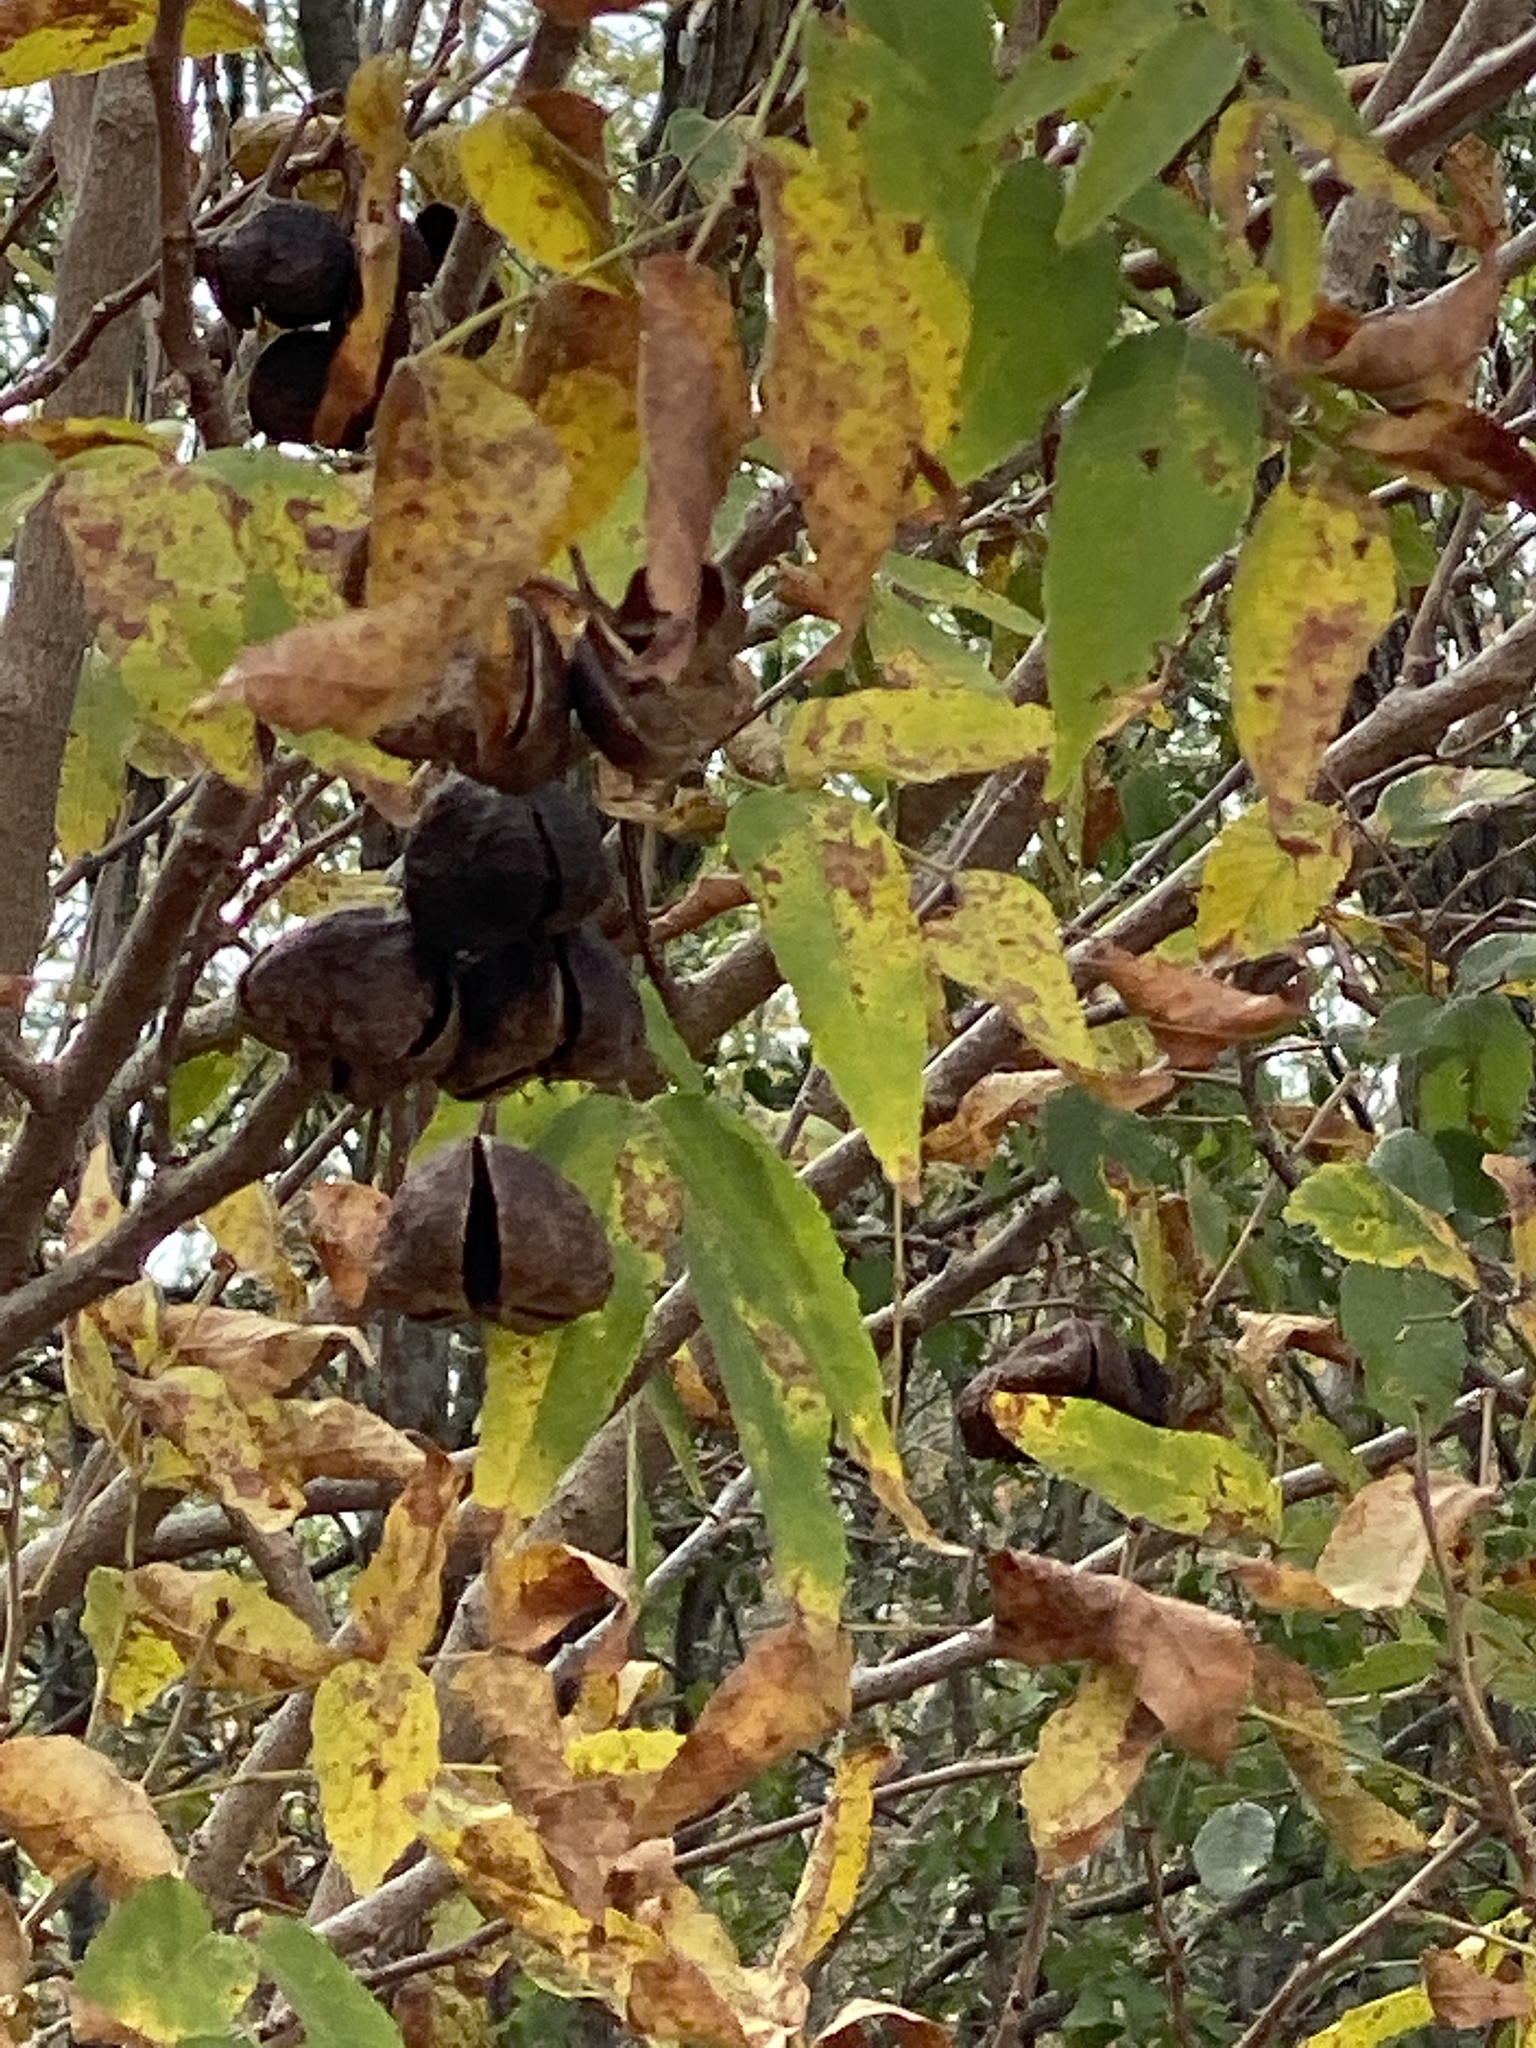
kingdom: Plantae
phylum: Tracheophyta
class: Magnoliopsida
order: Sapindales
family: Sapindaceae
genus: Ungnadia
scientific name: Ungnadia speciosa
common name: Texas-buckeye
